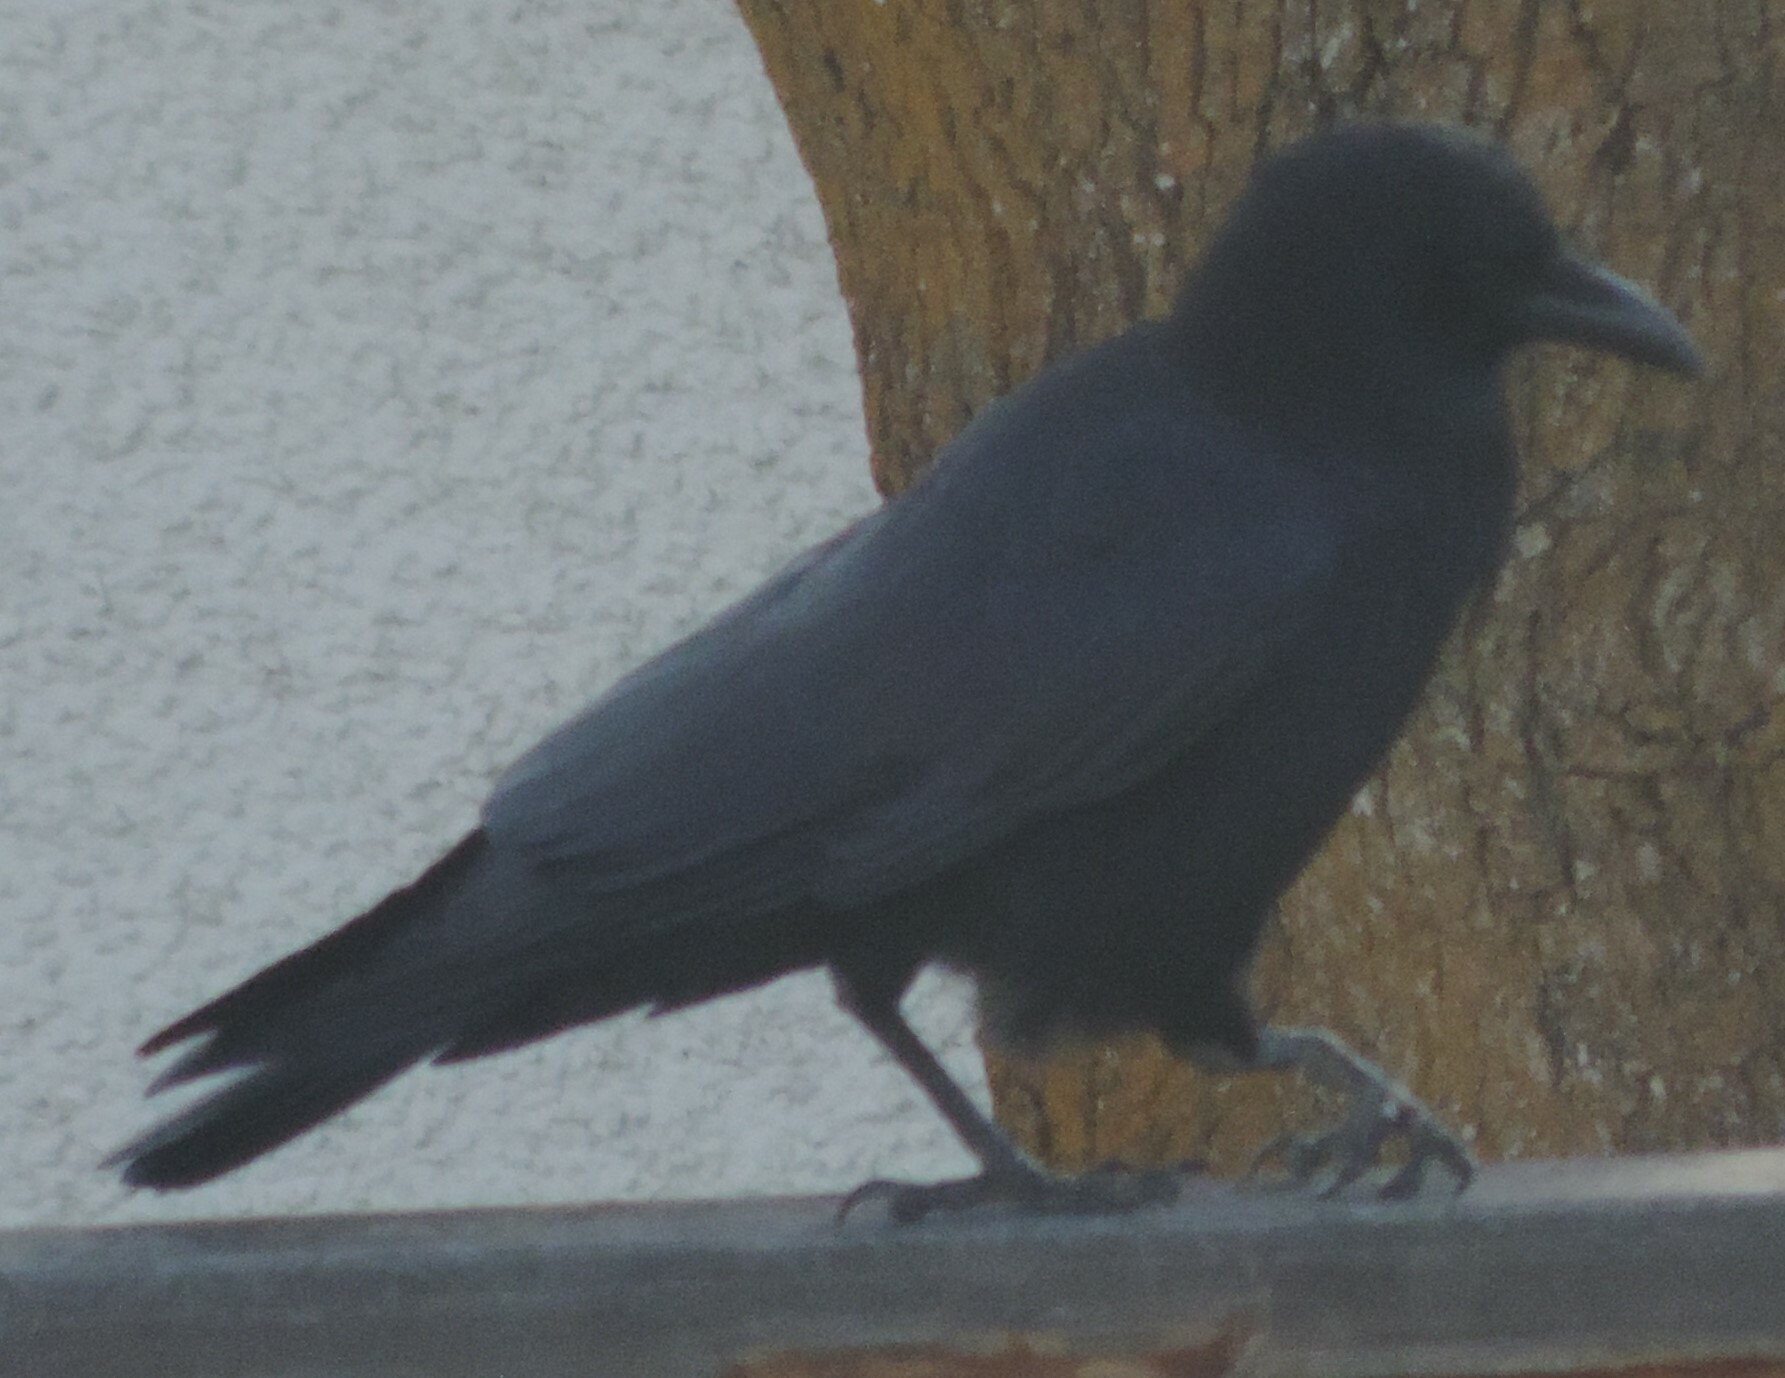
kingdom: Animalia
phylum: Chordata
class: Aves
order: Passeriformes
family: Corvidae
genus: Corvus
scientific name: Corvus brachyrhynchos
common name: American crow
